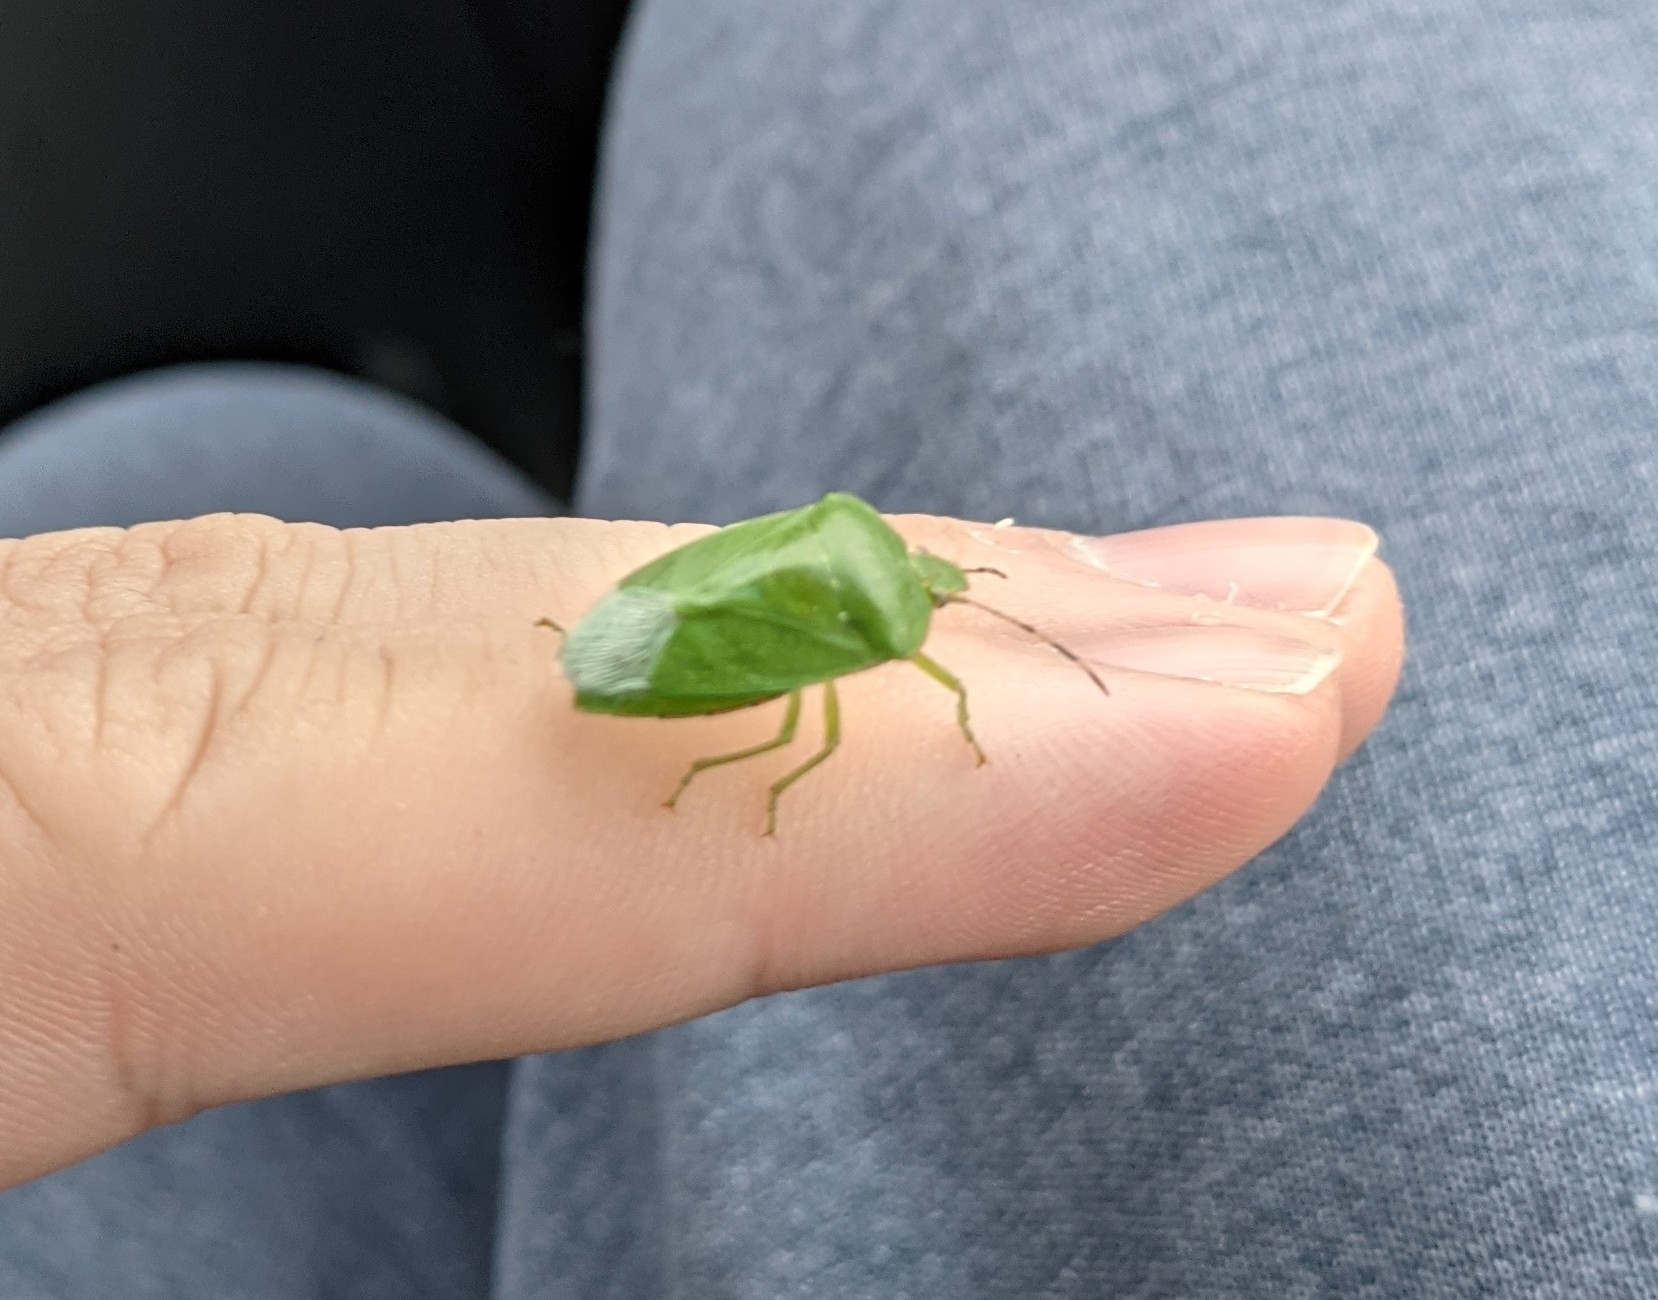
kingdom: Animalia
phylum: Arthropoda
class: Insecta
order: Hemiptera
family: Pentatomidae
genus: Chinavia
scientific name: Chinavia hilaris
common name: Green stink bug
